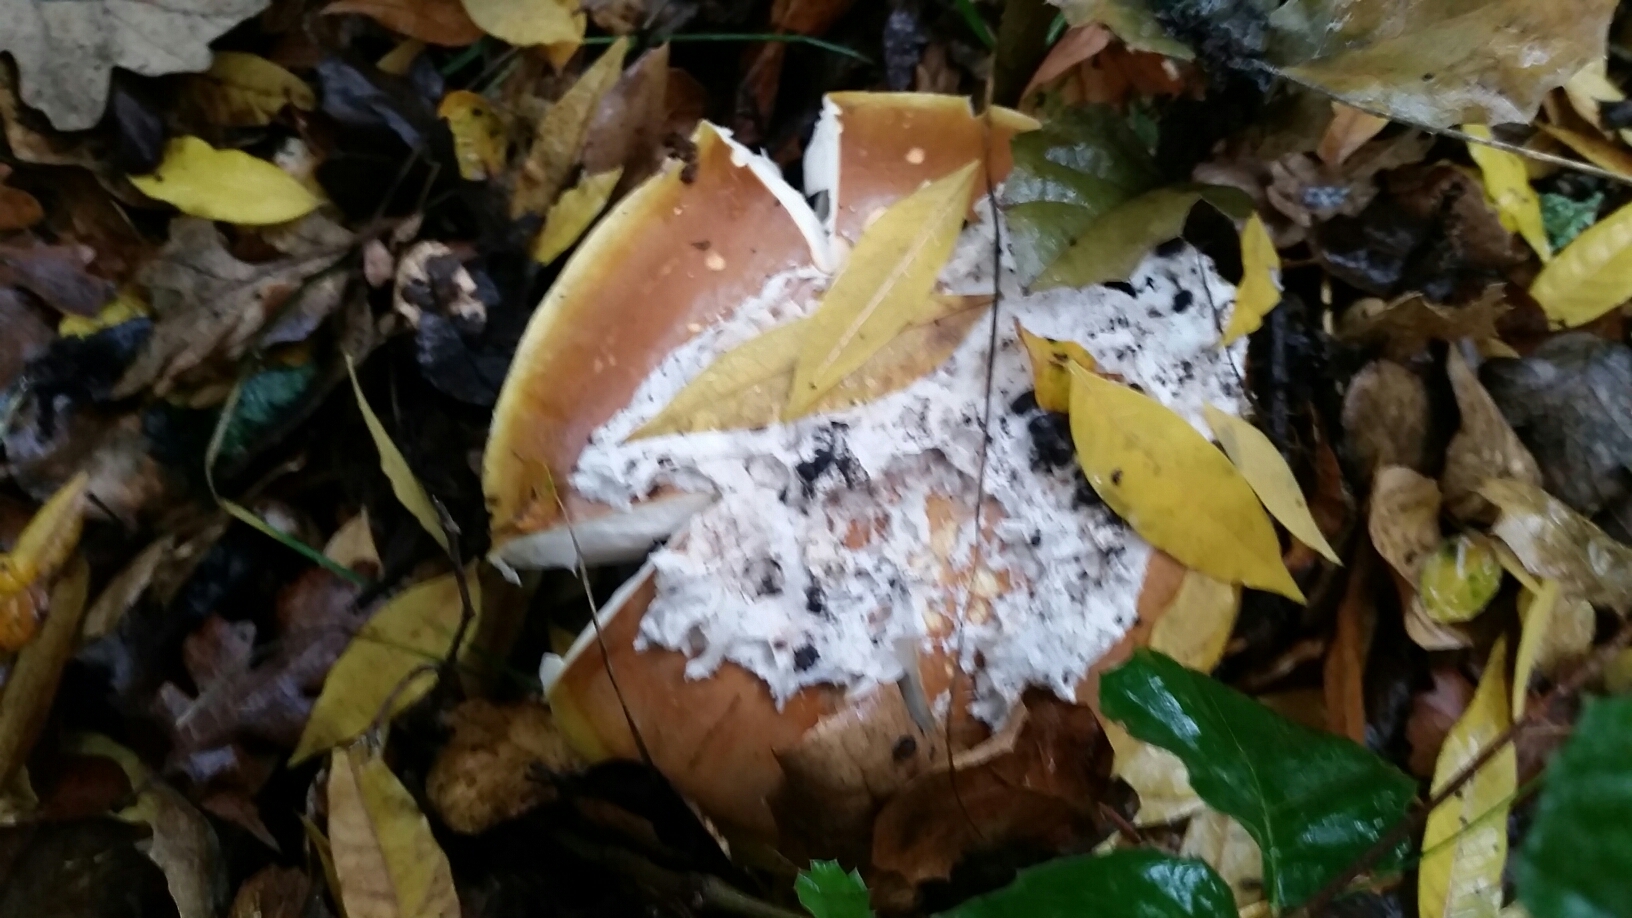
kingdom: Fungi
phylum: Basidiomycota
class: Agaricomycetes
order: Agaricales
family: Amanitaceae
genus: Amanita
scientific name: Amanita calyptroderma
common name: Coccora
